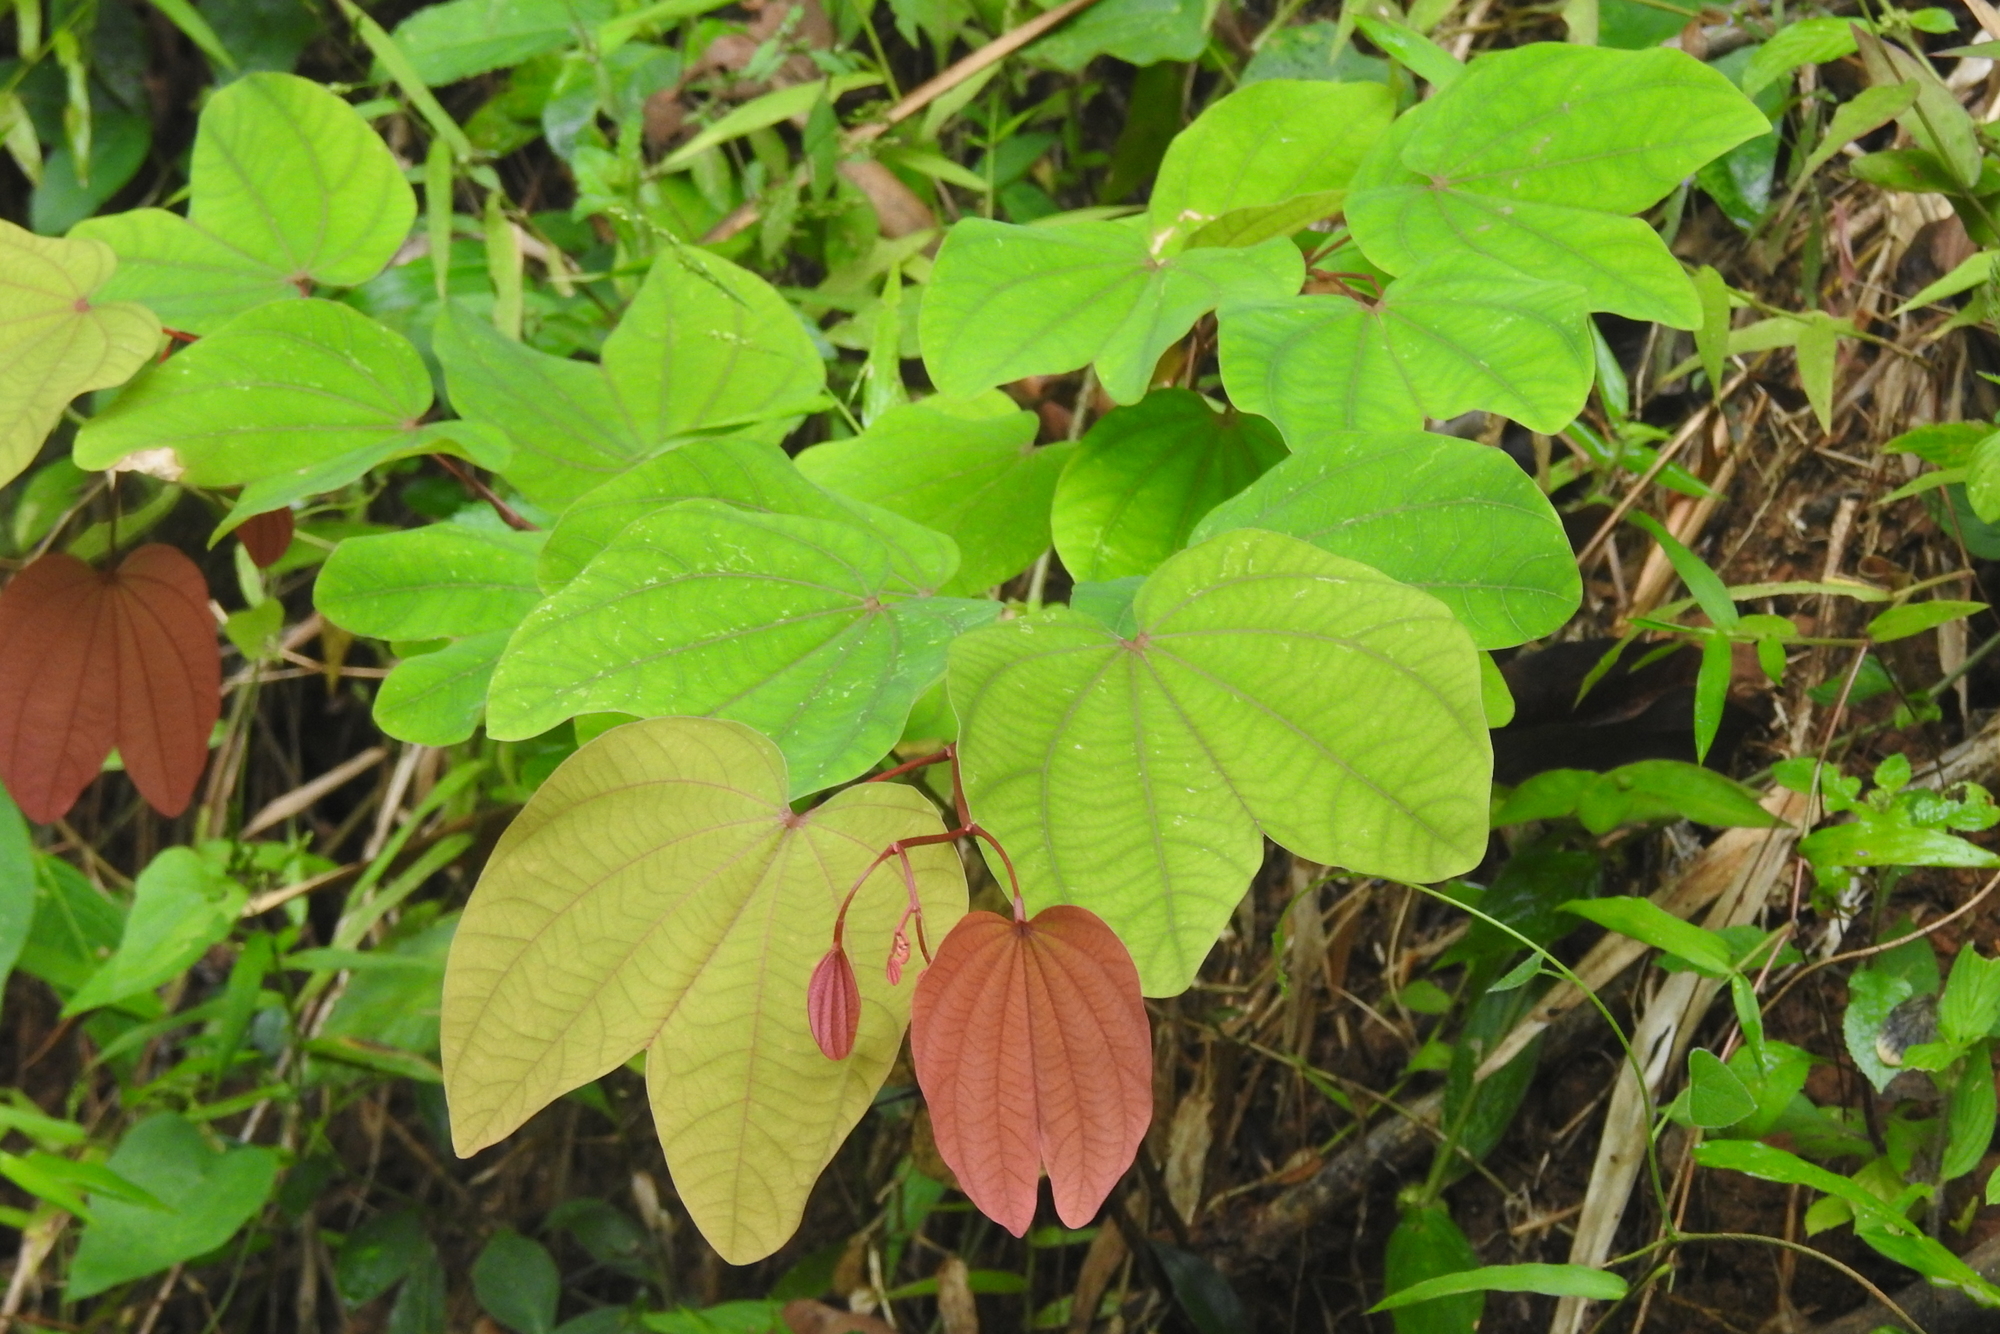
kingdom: Plantae
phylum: Tracheophyta
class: Magnoliopsida
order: Fabales
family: Fabaceae
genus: Bauhinia
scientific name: Bauhinia phoenicea
